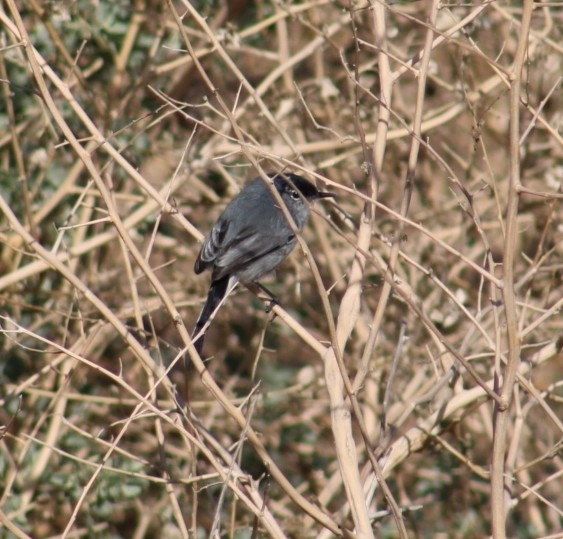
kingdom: Animalia
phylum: Chordata
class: Aves
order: Passeriformes
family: Polioptilidae
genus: Polioptila
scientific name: Polioptila melanura
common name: Black-tailed gnatcatcher
